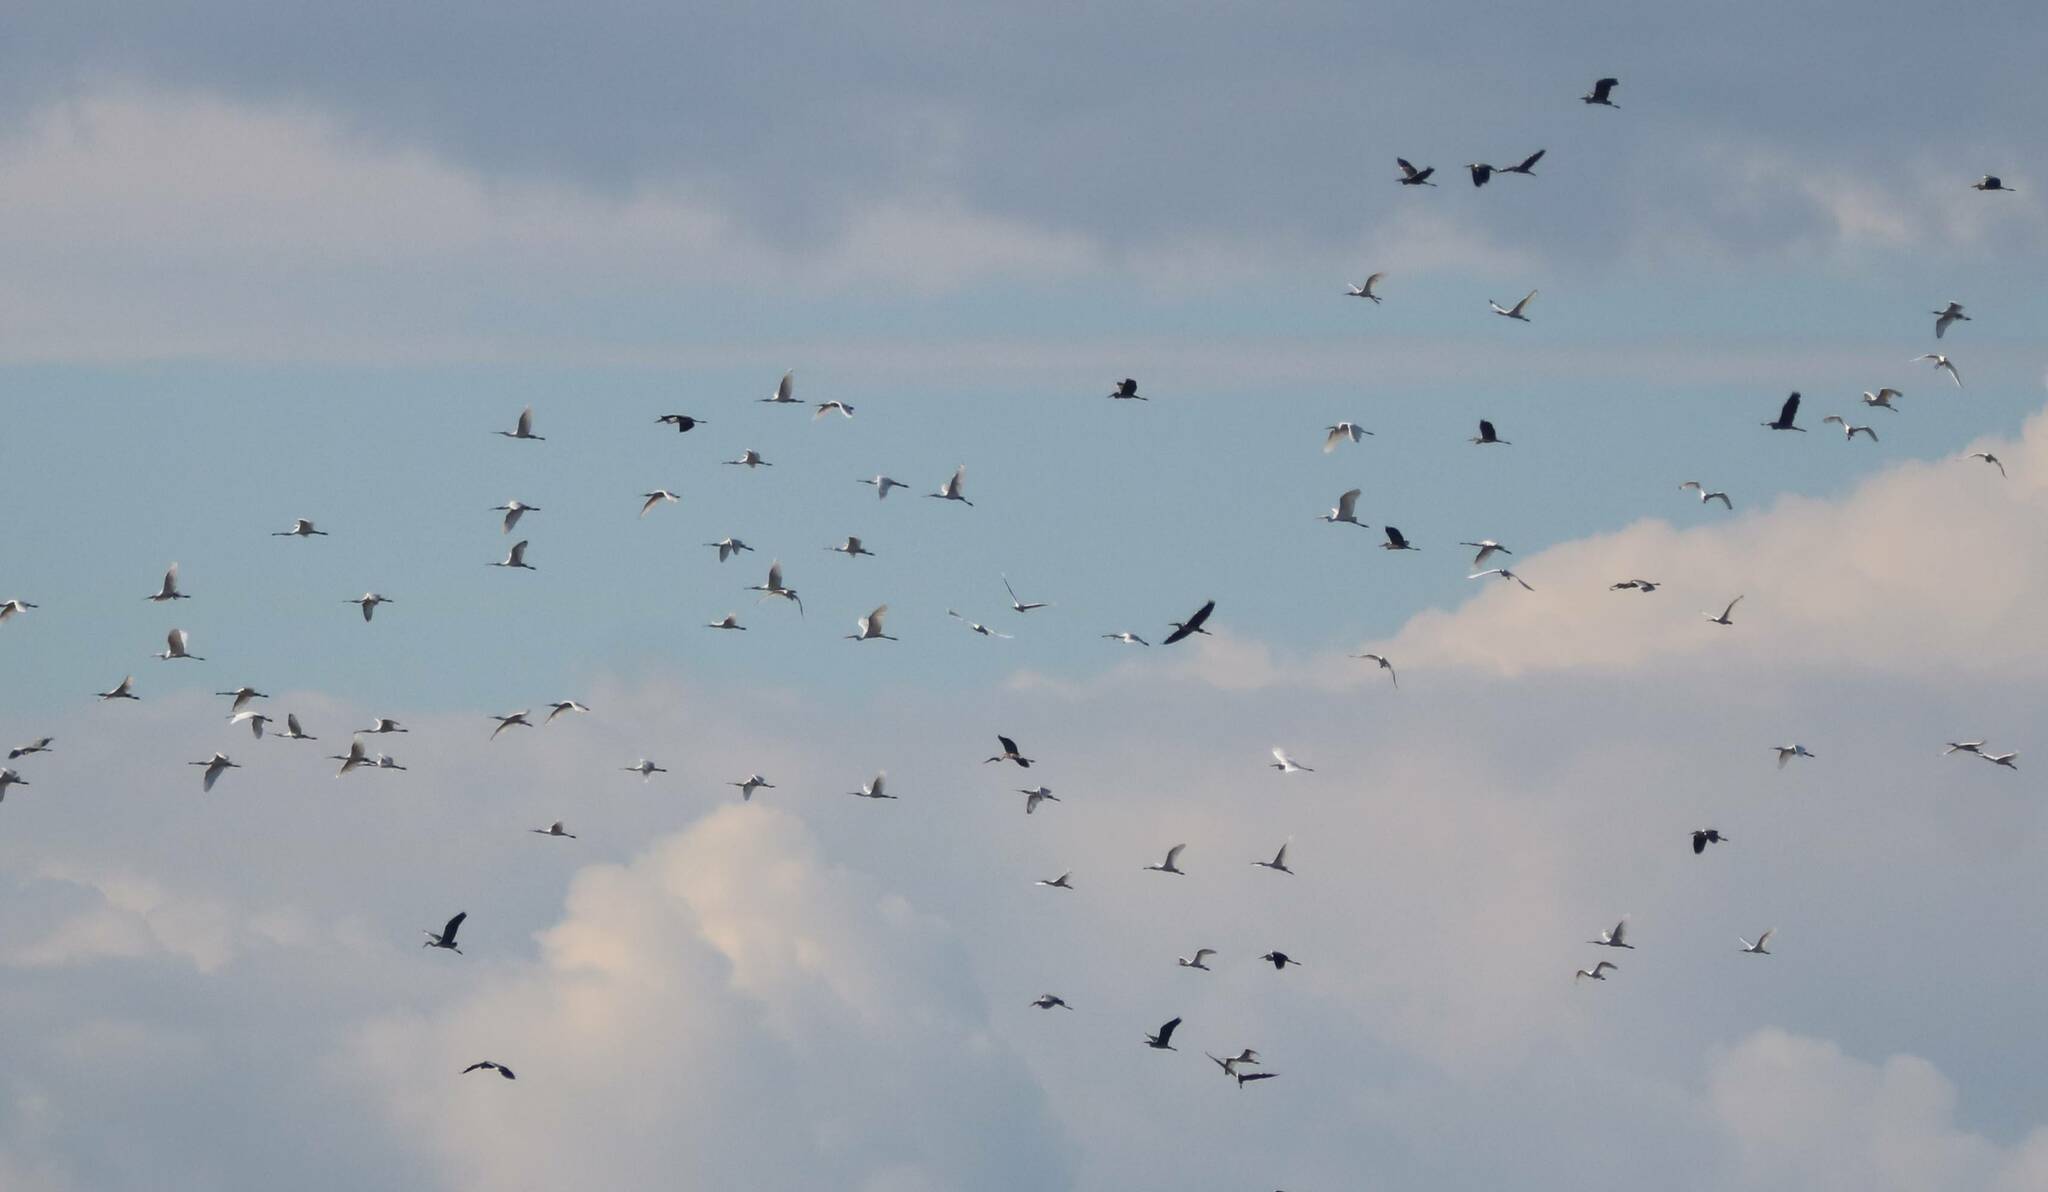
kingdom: Animalia
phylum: Chordata
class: Aves
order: Pelecaniformes
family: Threskiornithidae
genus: Platalea
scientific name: Platalea leucorodia
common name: Eurasian spoonbill
